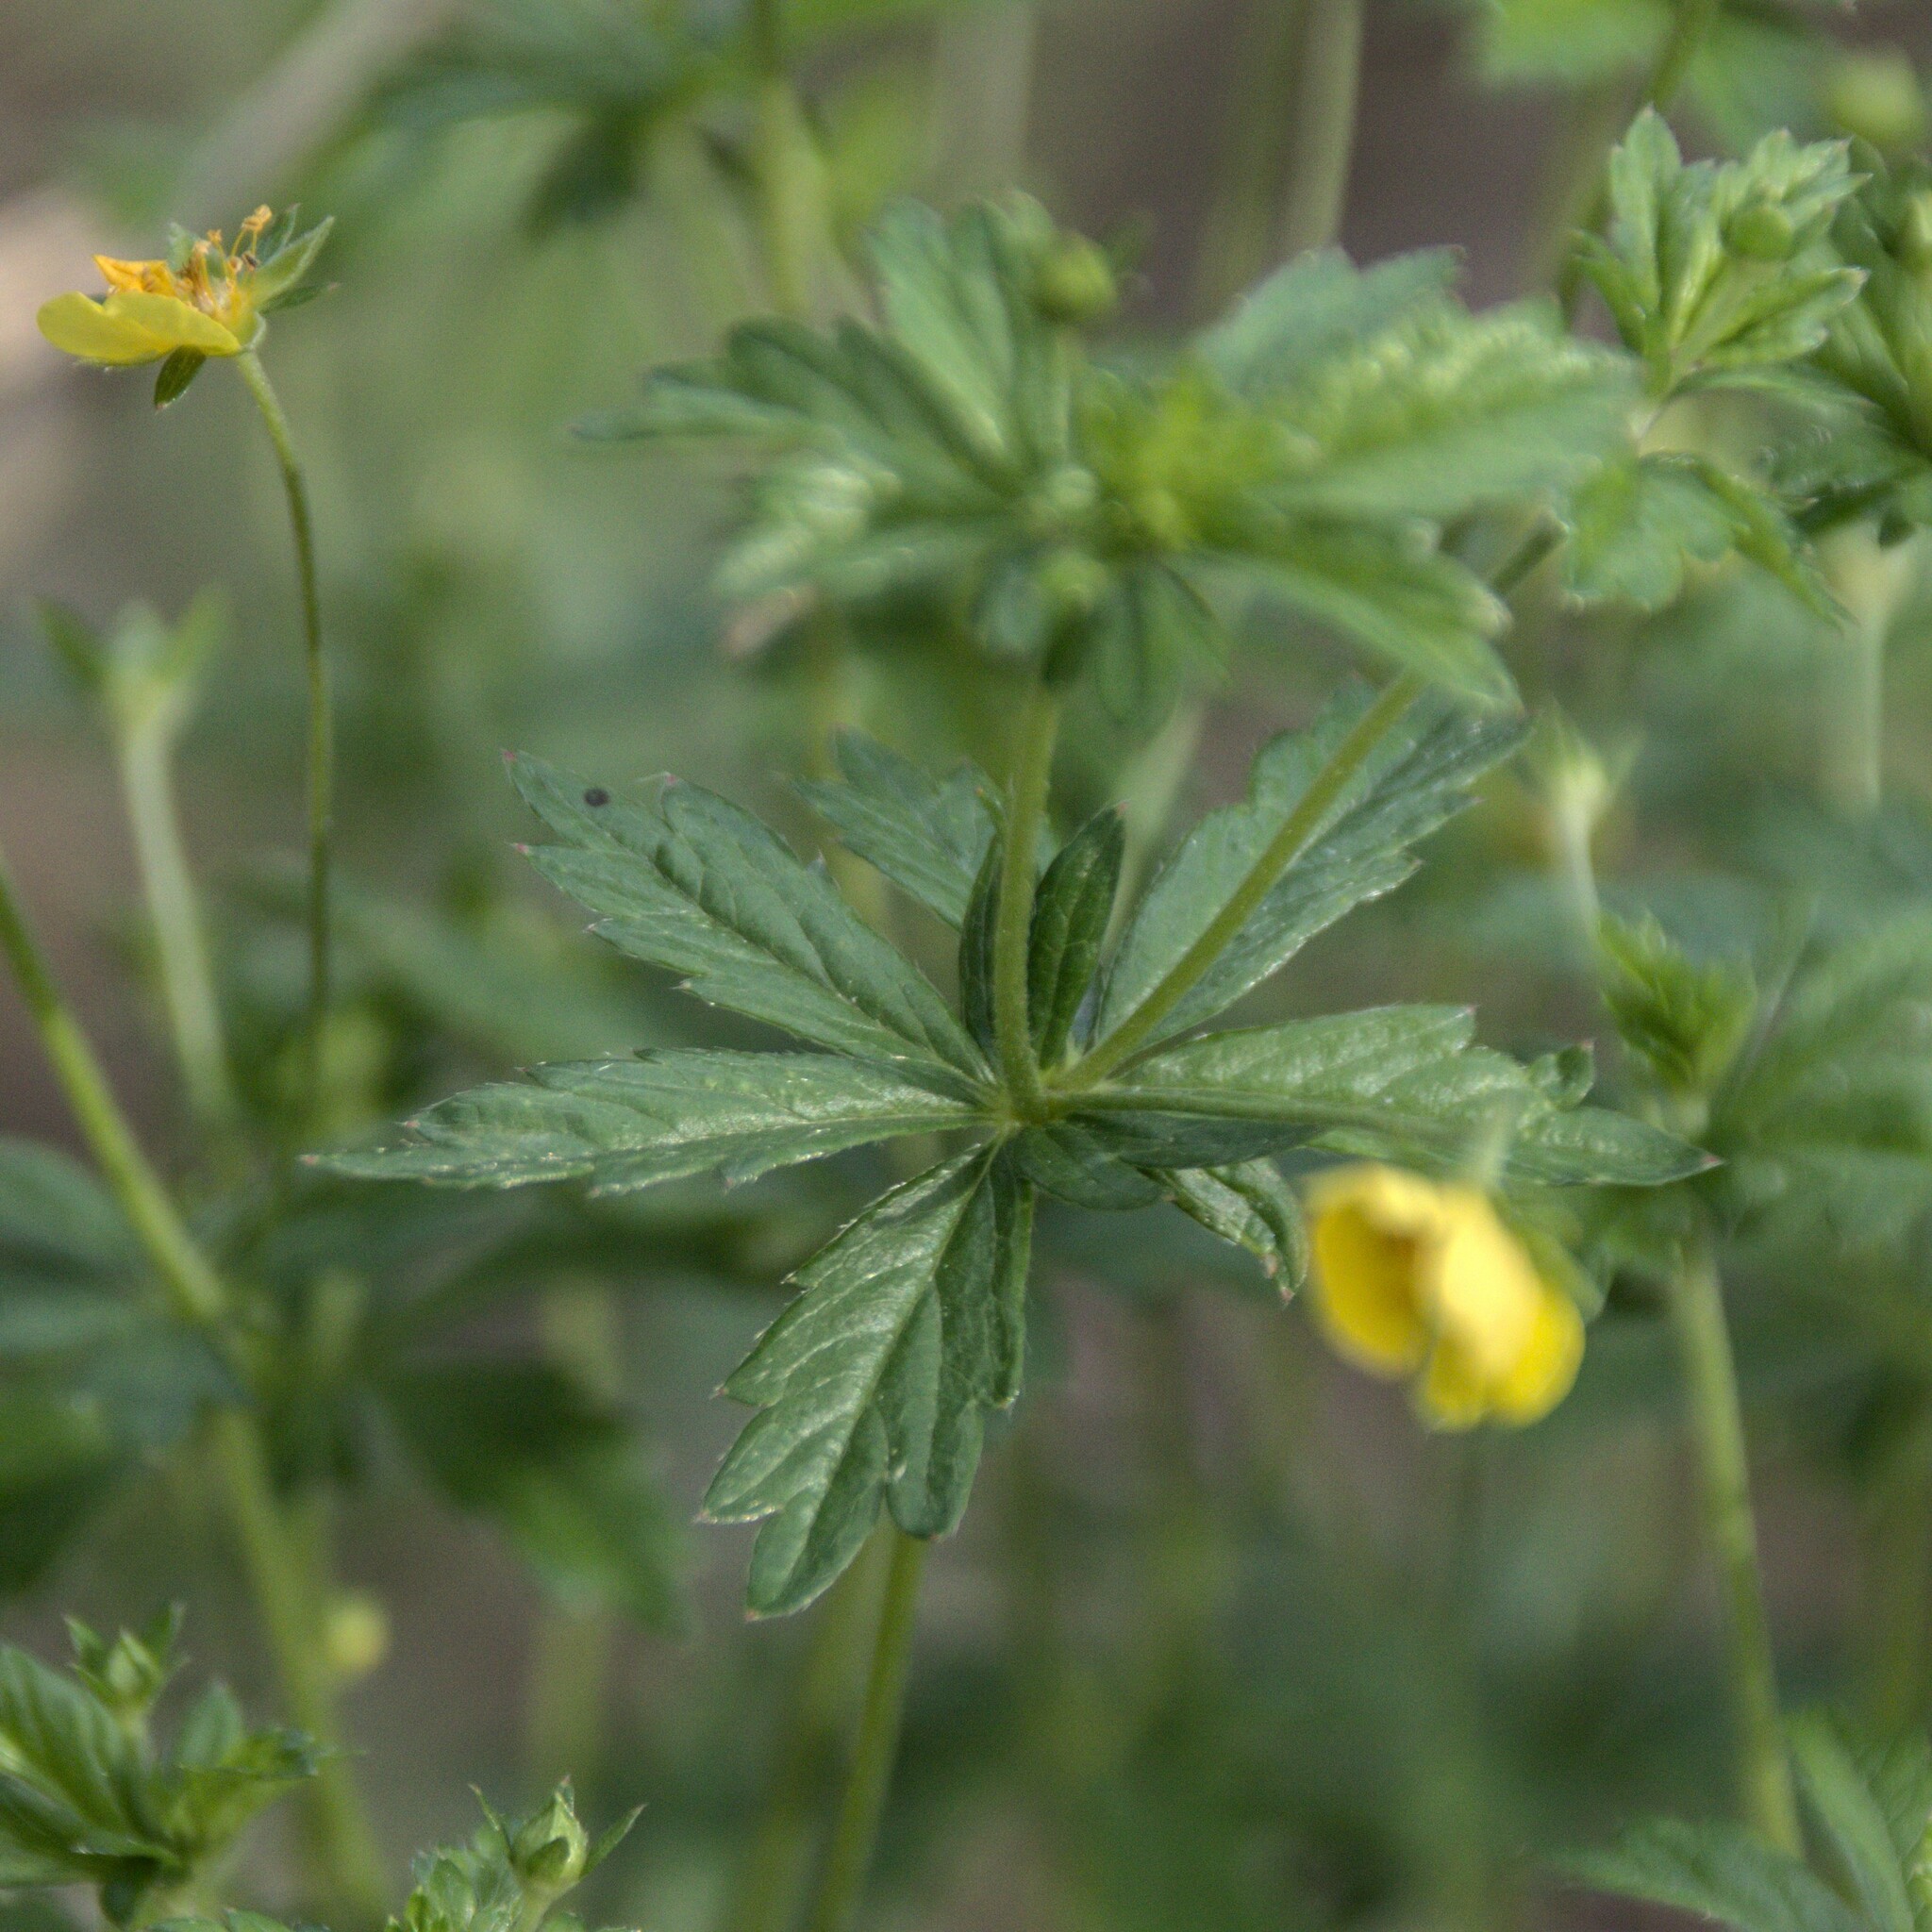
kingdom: Plantae
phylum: Tracheophyta
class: Magnoliopsida
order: Rosales
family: Rosaceae
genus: Potentilla
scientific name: Potentilla erecta
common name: Tormentil
